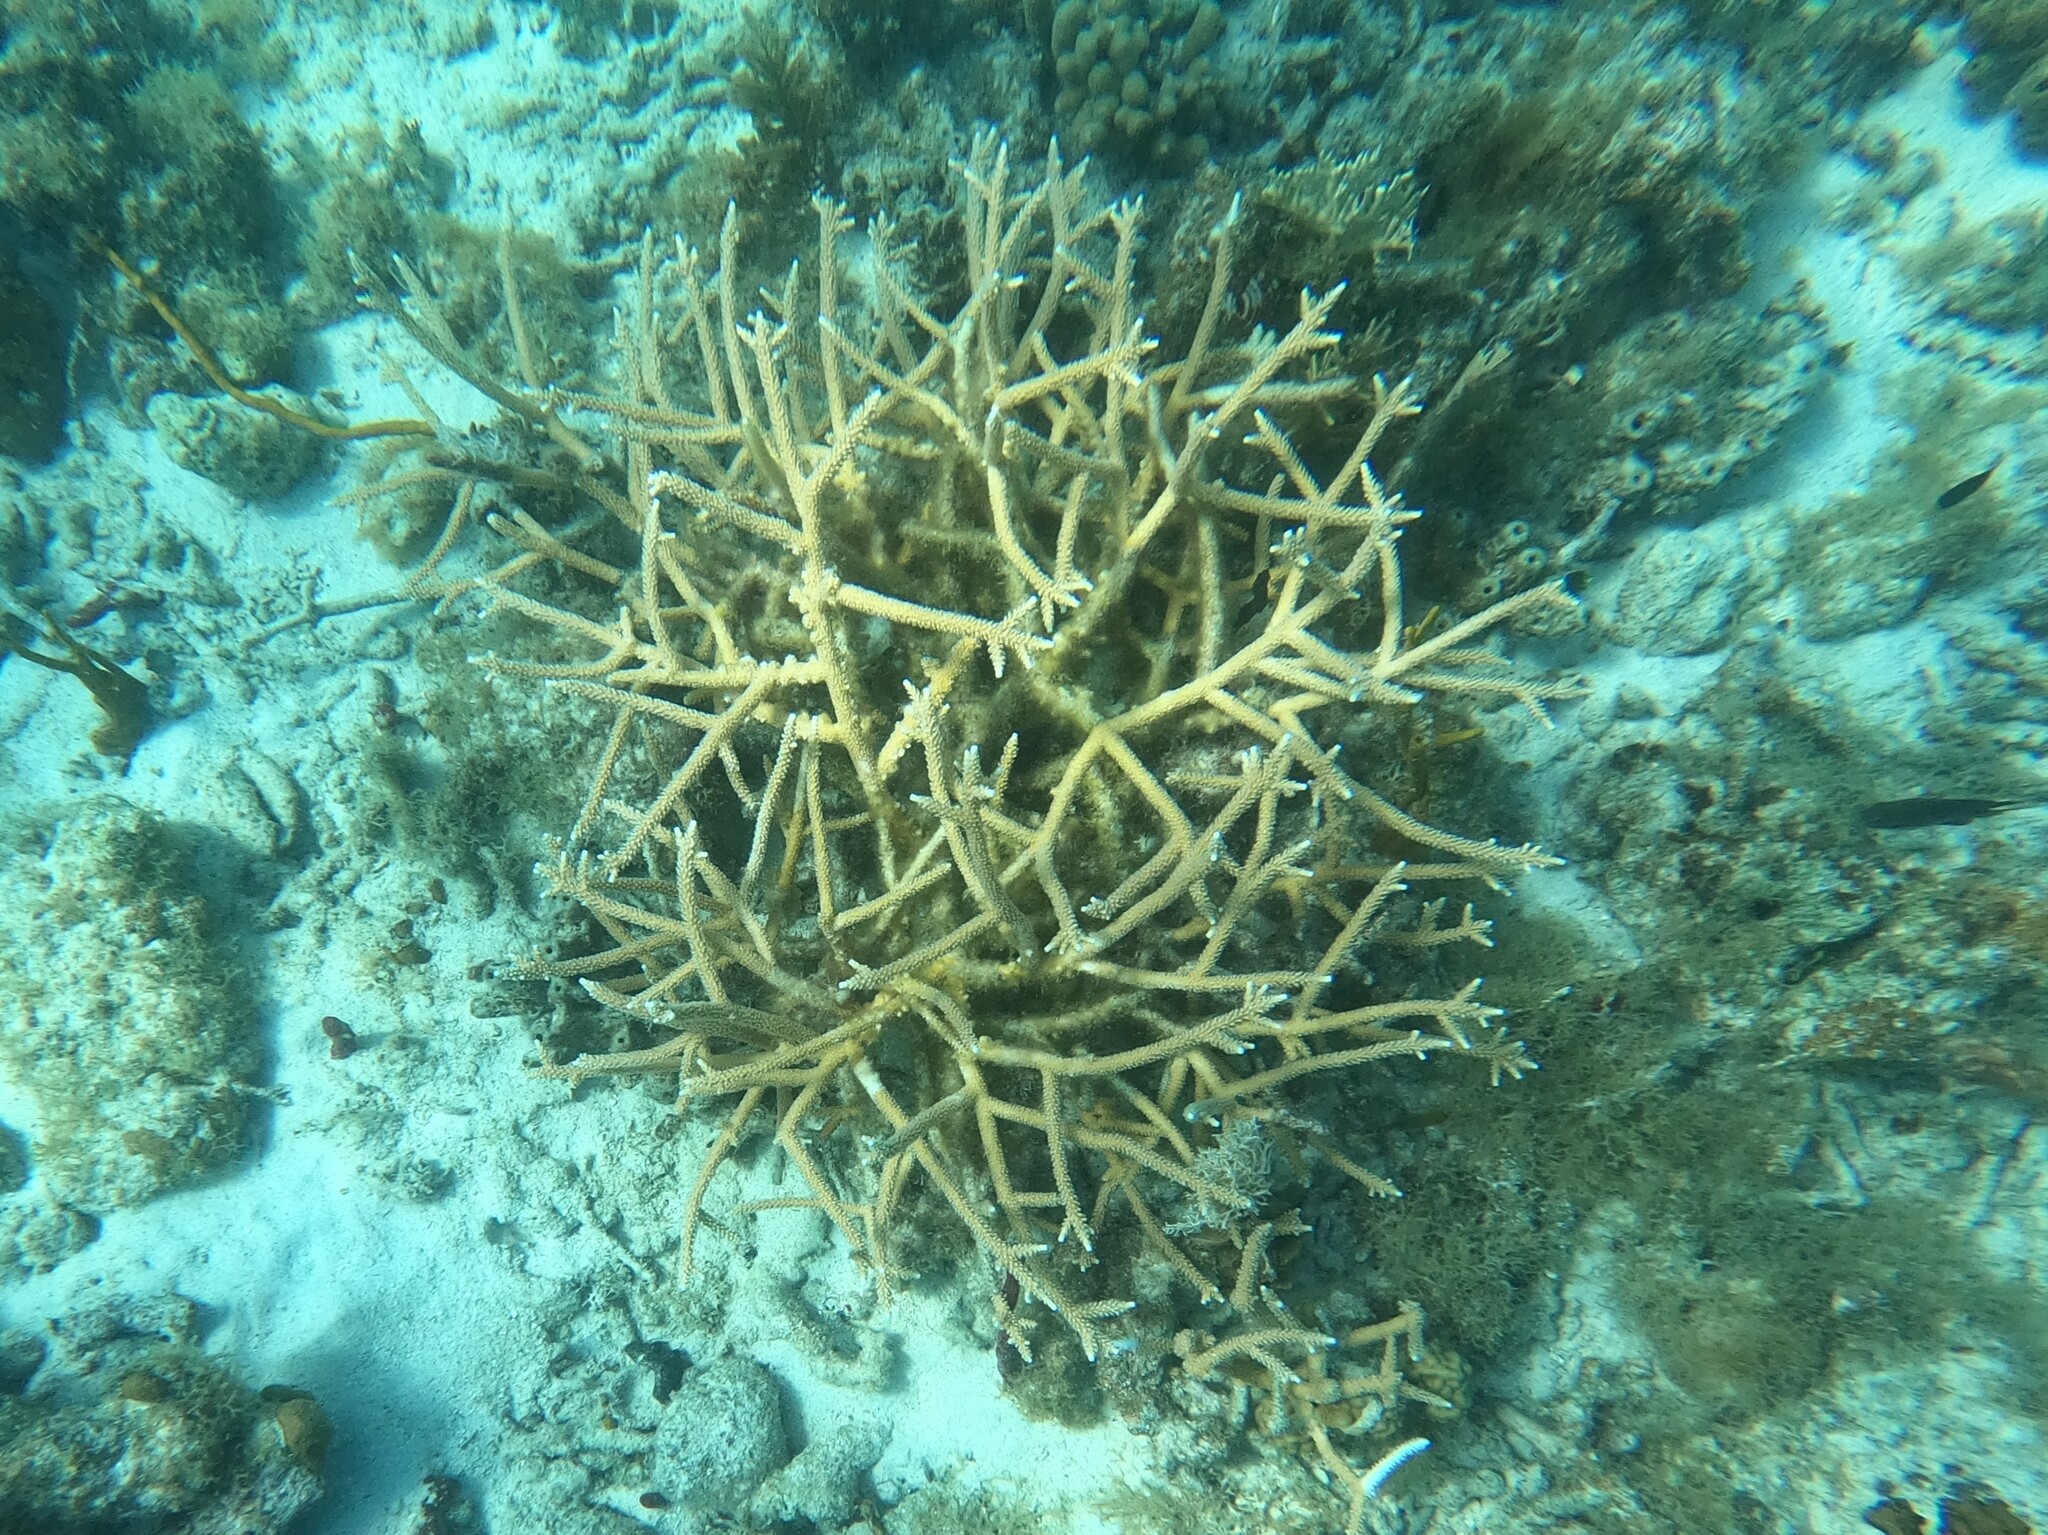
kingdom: Animalia
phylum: Cnidaria
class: Anthozoa
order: Scleractinia
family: Acroporidae
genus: Acropora
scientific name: Acropora cervicornis
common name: Staghorn coral
